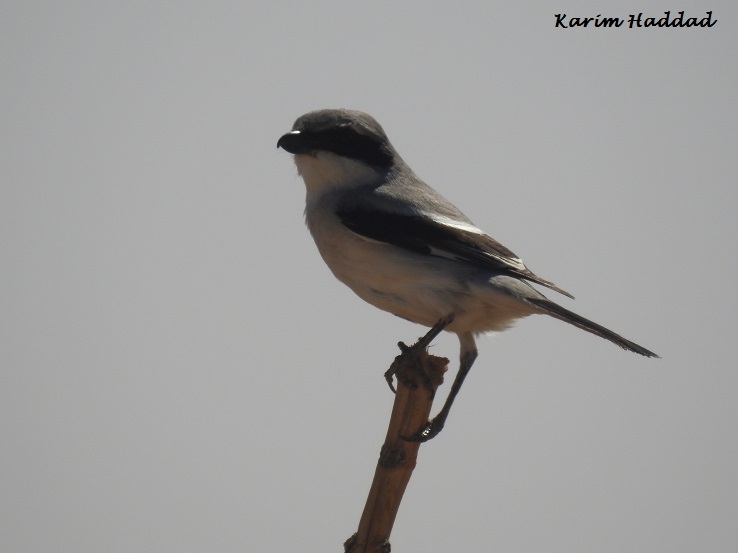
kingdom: Animalia
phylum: Chordata
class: Aves
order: Passeriformes
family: Laniidae
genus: Lanius
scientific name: Lanius excubitor
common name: Great grey shrike
